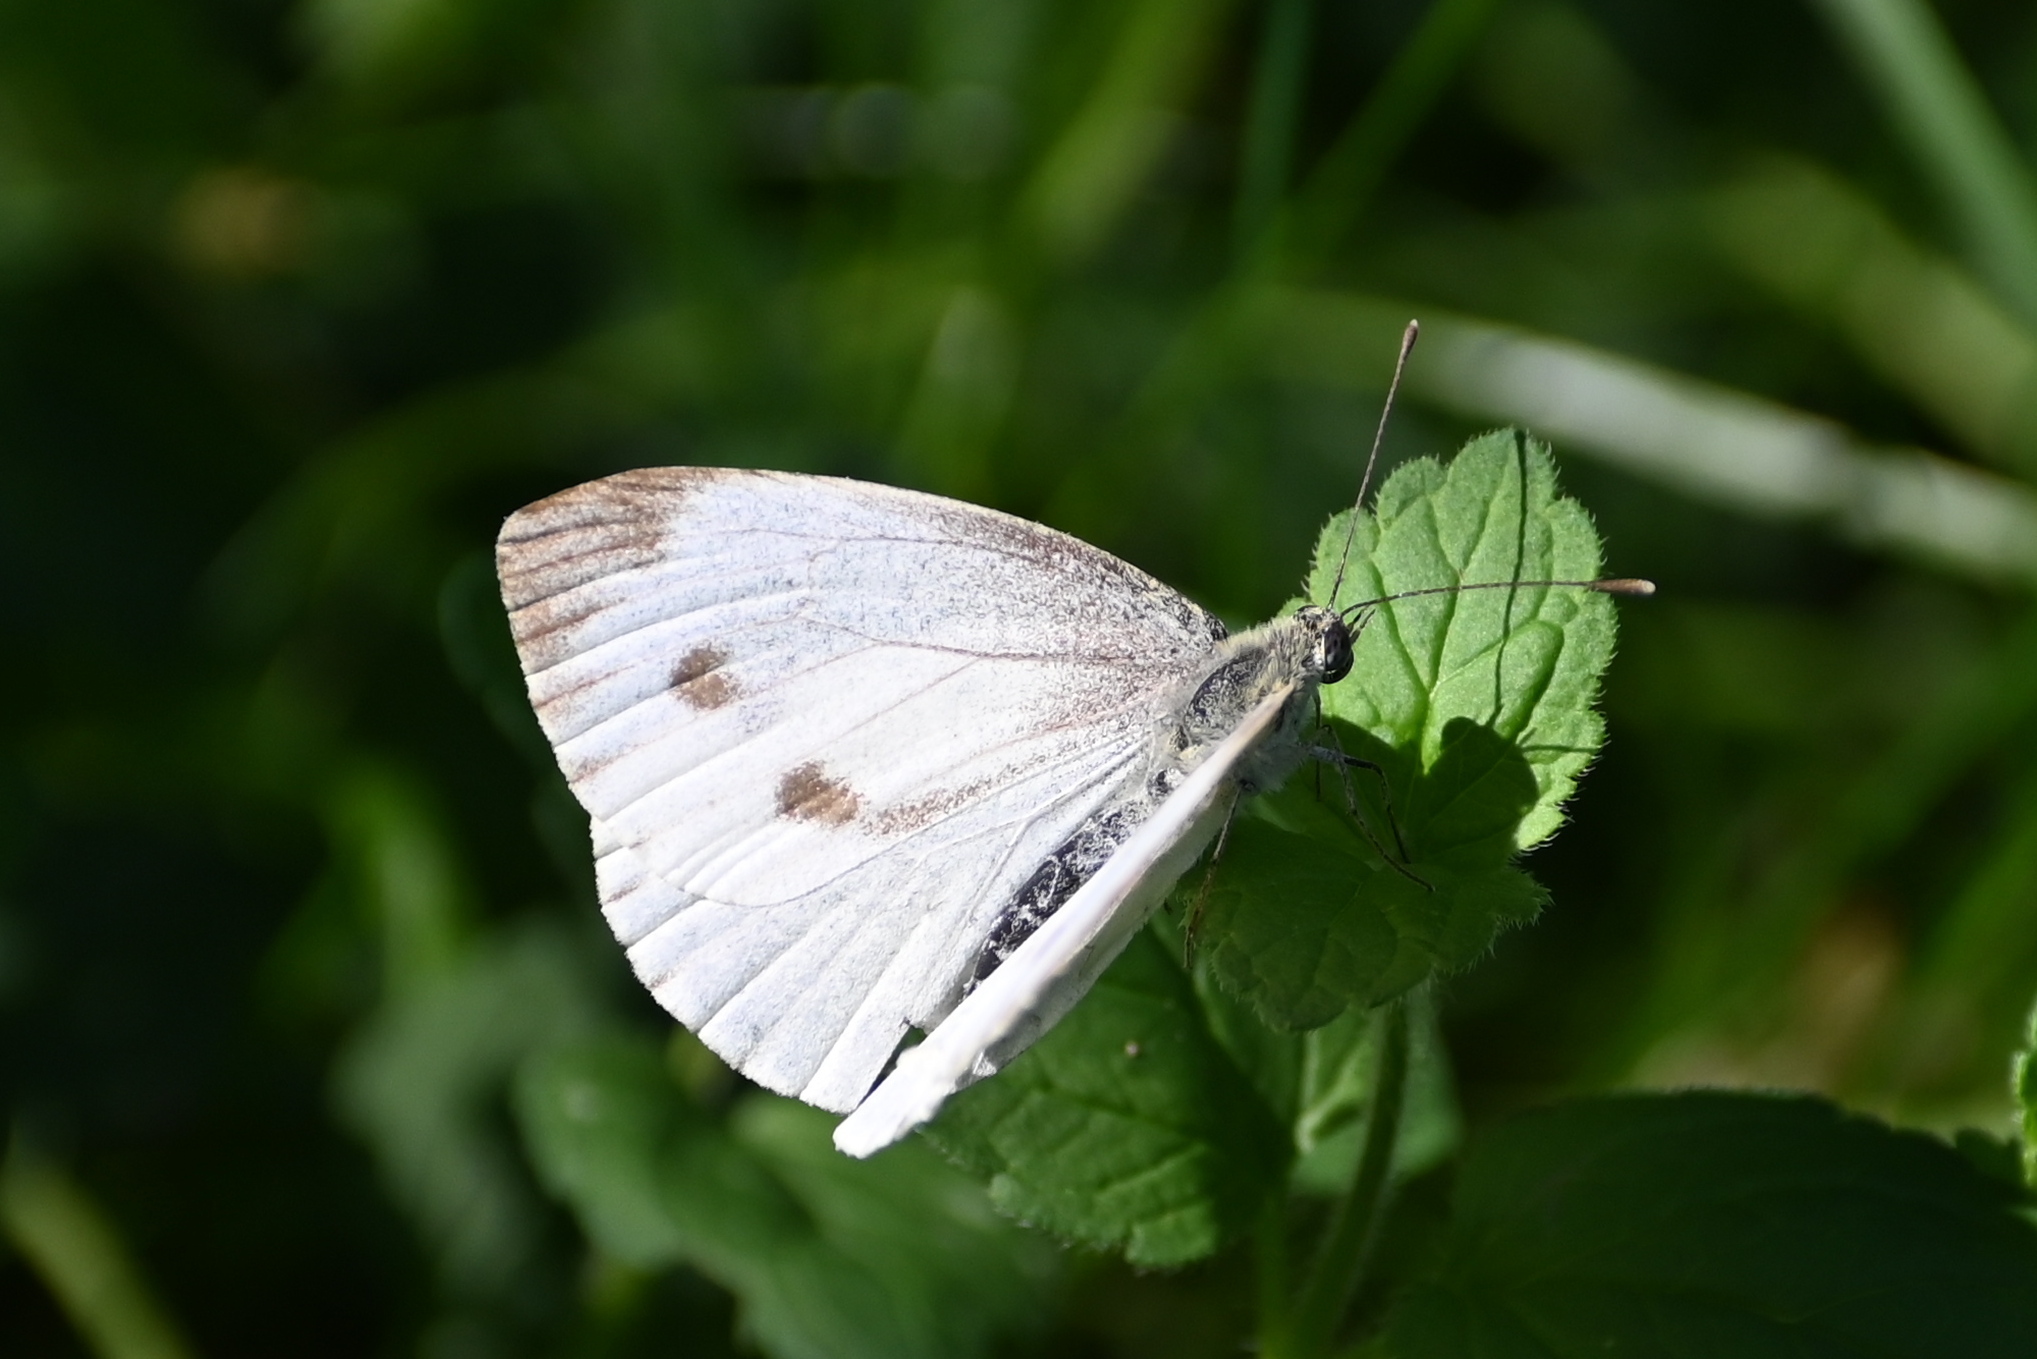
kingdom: Animalia
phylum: Arthropoda
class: Insecta
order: Lepidoptera
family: Pieridae
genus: Pieris
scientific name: Pieris napi
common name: Green-veined white
